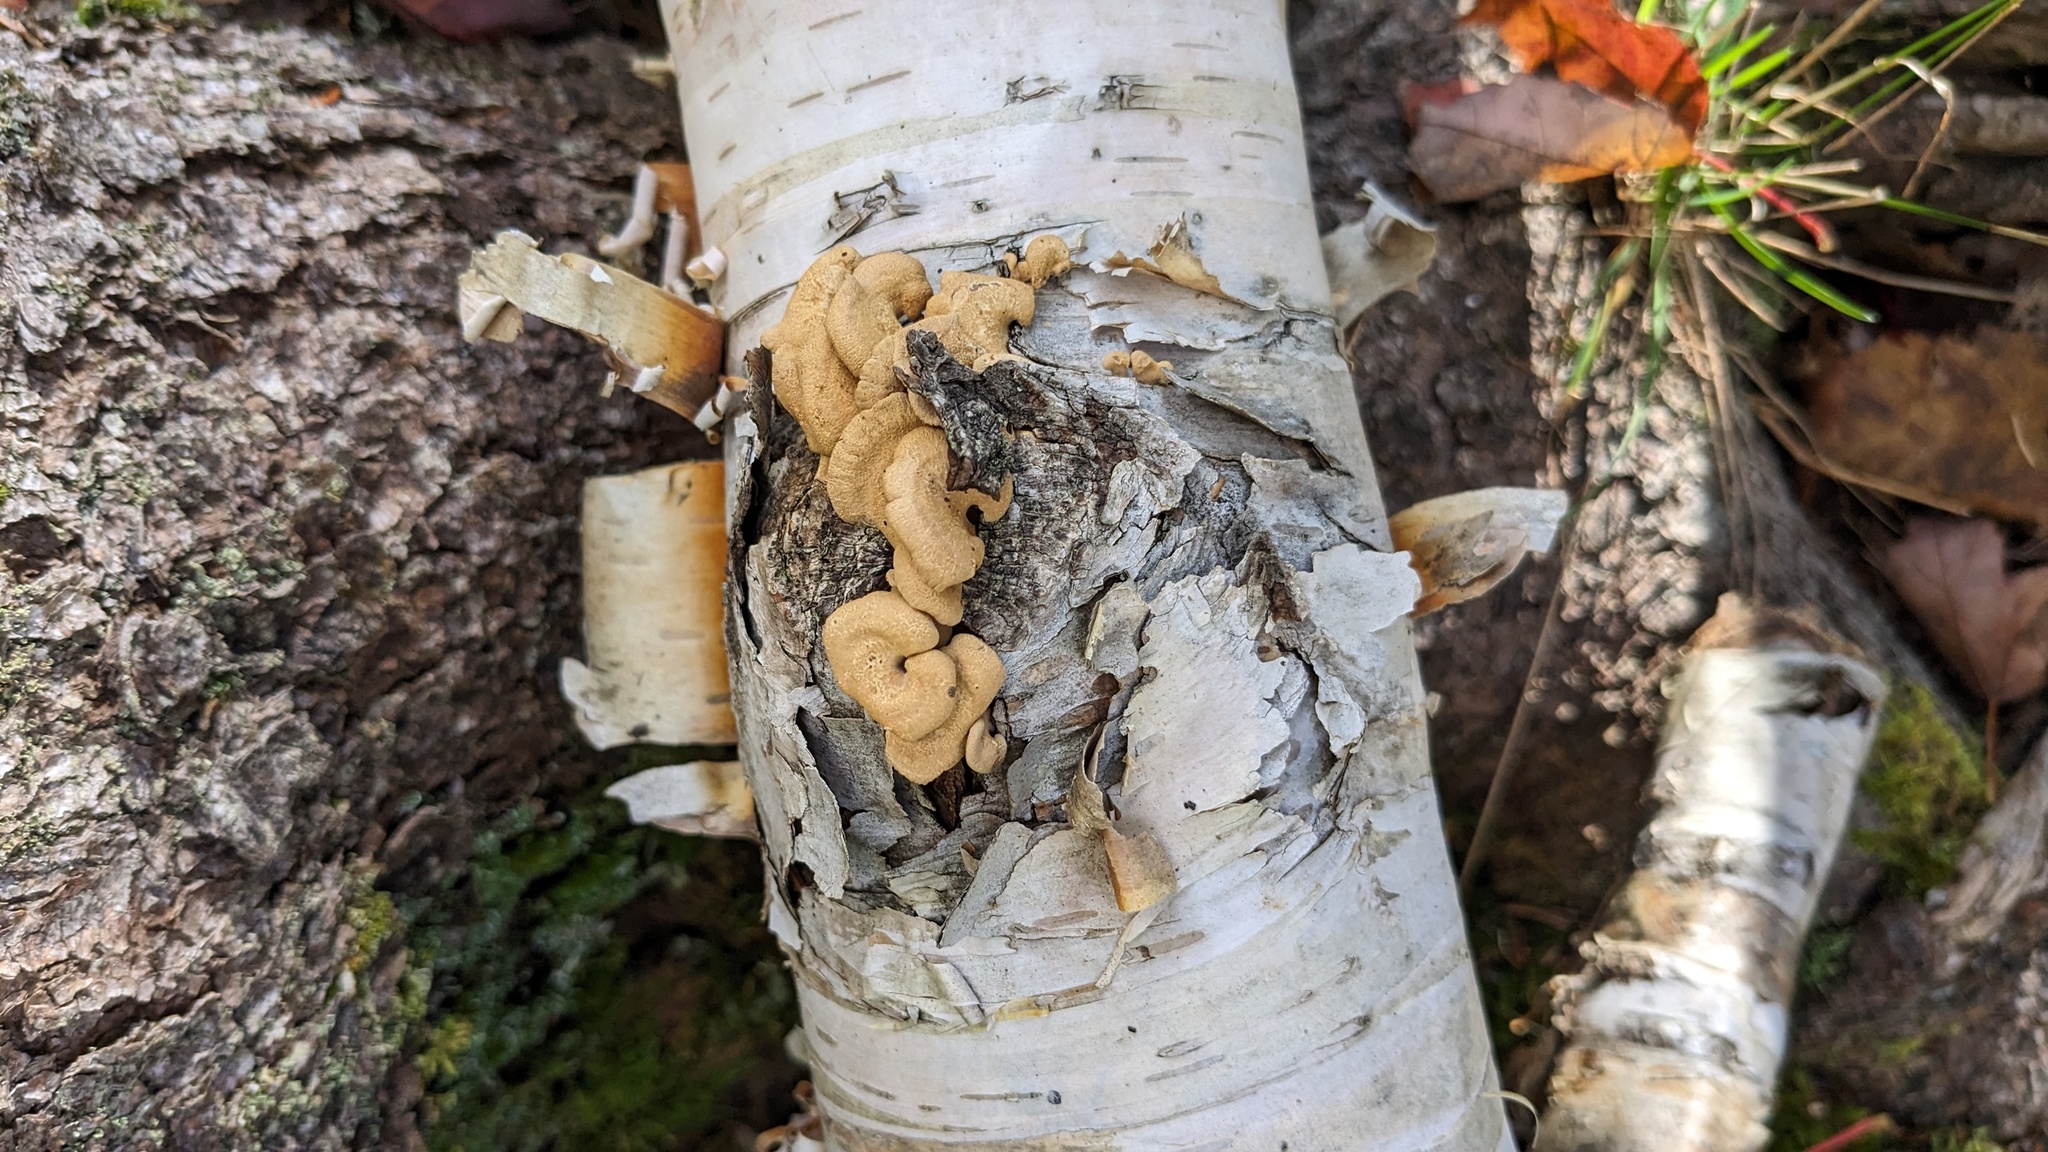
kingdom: Fungi
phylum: Basidiomycota
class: Agaricomycetes
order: Agaricales
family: Mycenaceae
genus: Panellus
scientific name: Panellus stipticus
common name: Bitter oysterling
